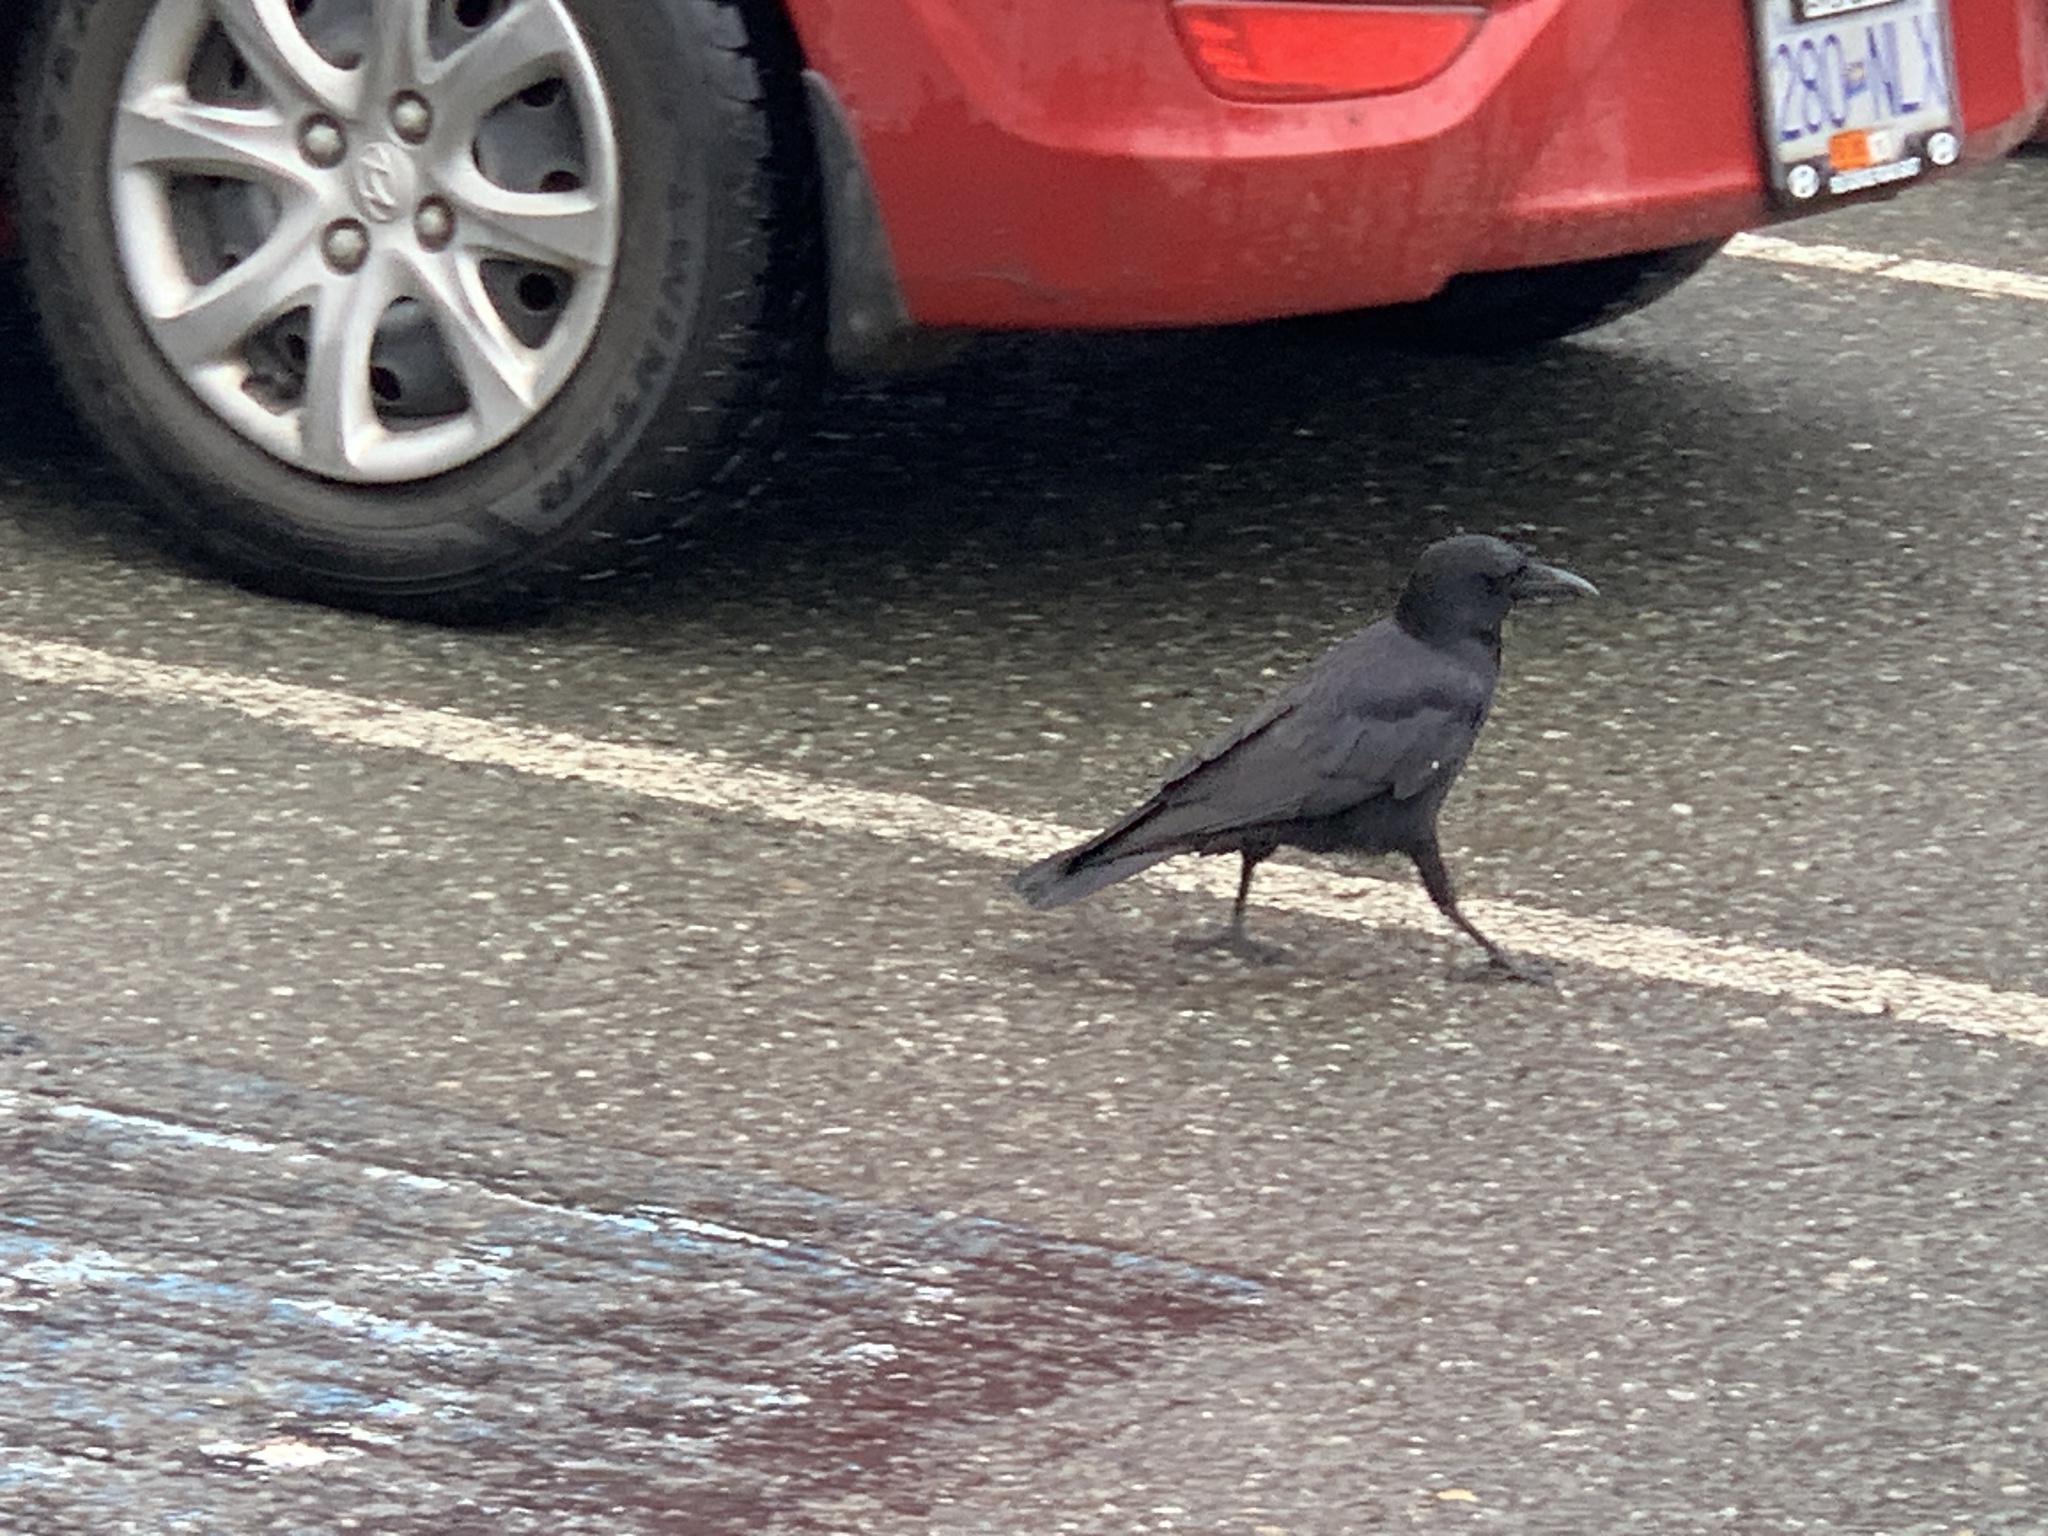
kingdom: Animalia
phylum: Chordata
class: Aves
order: Passeriformes
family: Corvidae
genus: Corvus
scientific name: Corvus brachyrhynchos
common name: American crow
